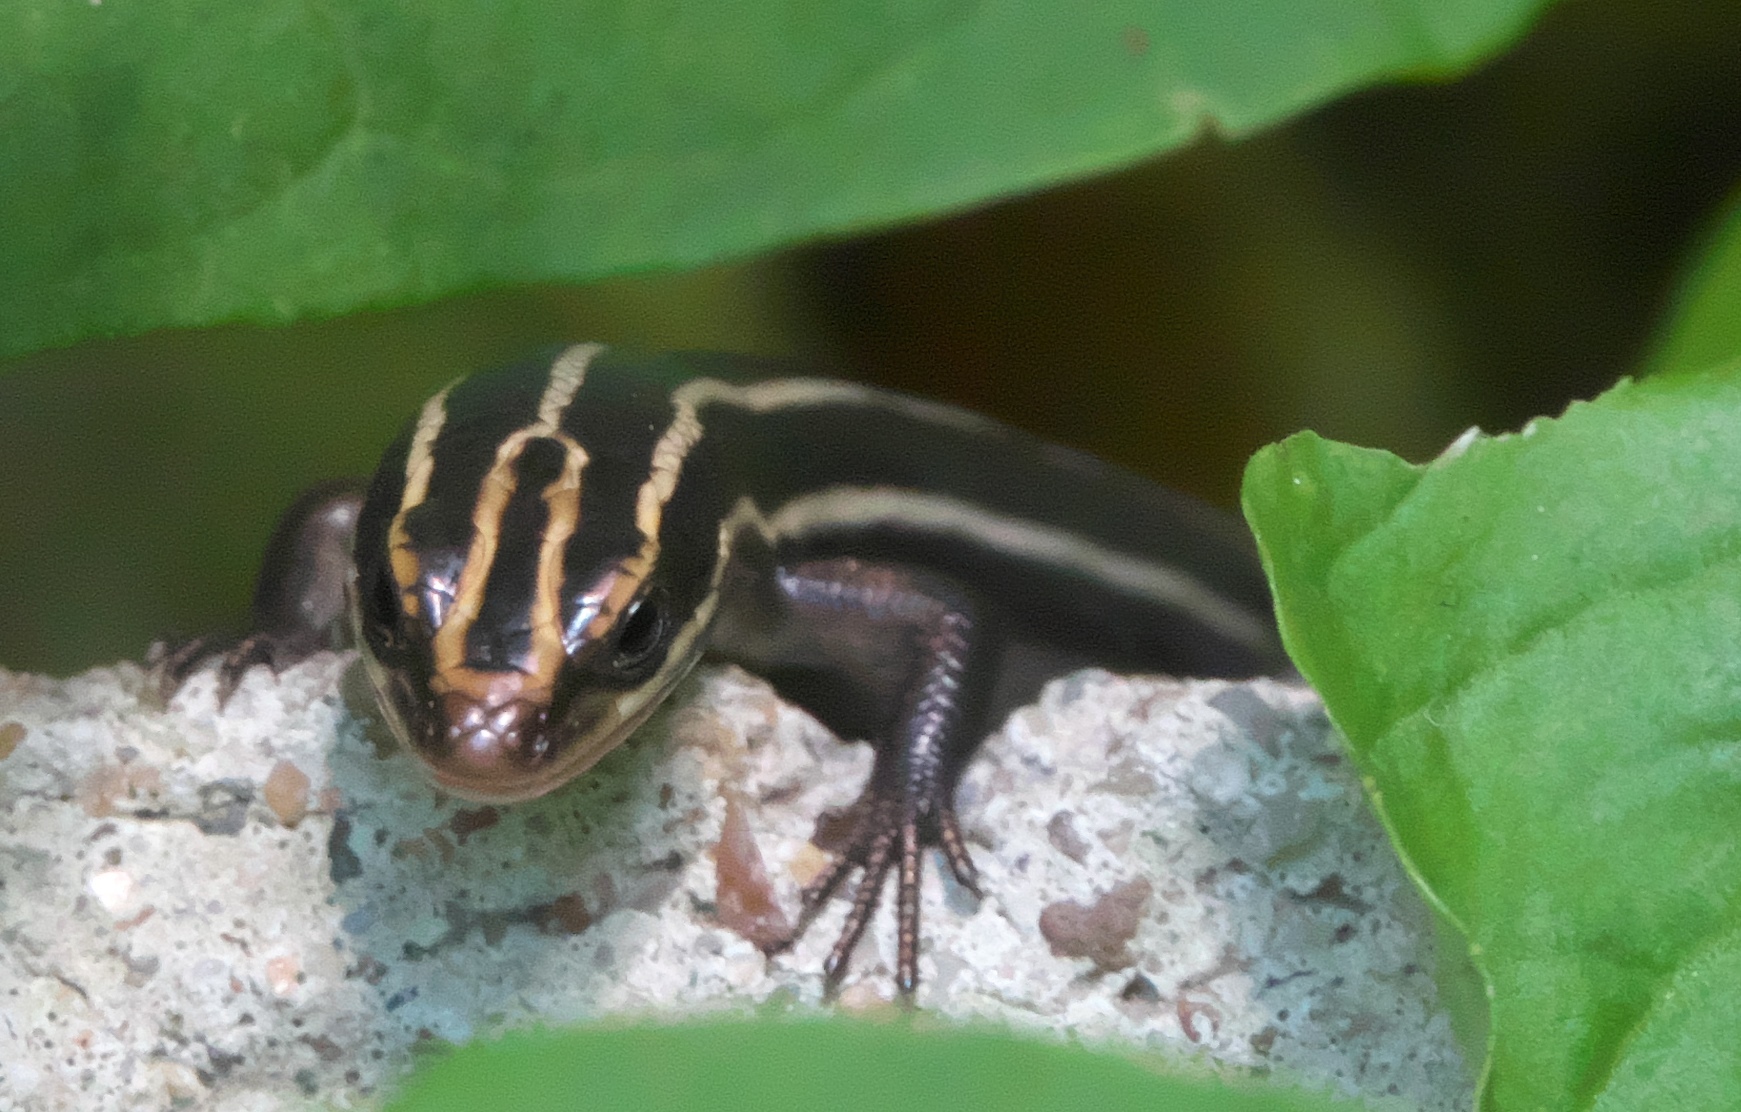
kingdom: Animalia
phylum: Chordata
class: Squamata
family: Scincidae
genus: Plestiodon
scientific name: Plestiodon fasciatus
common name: Five-lined skink
